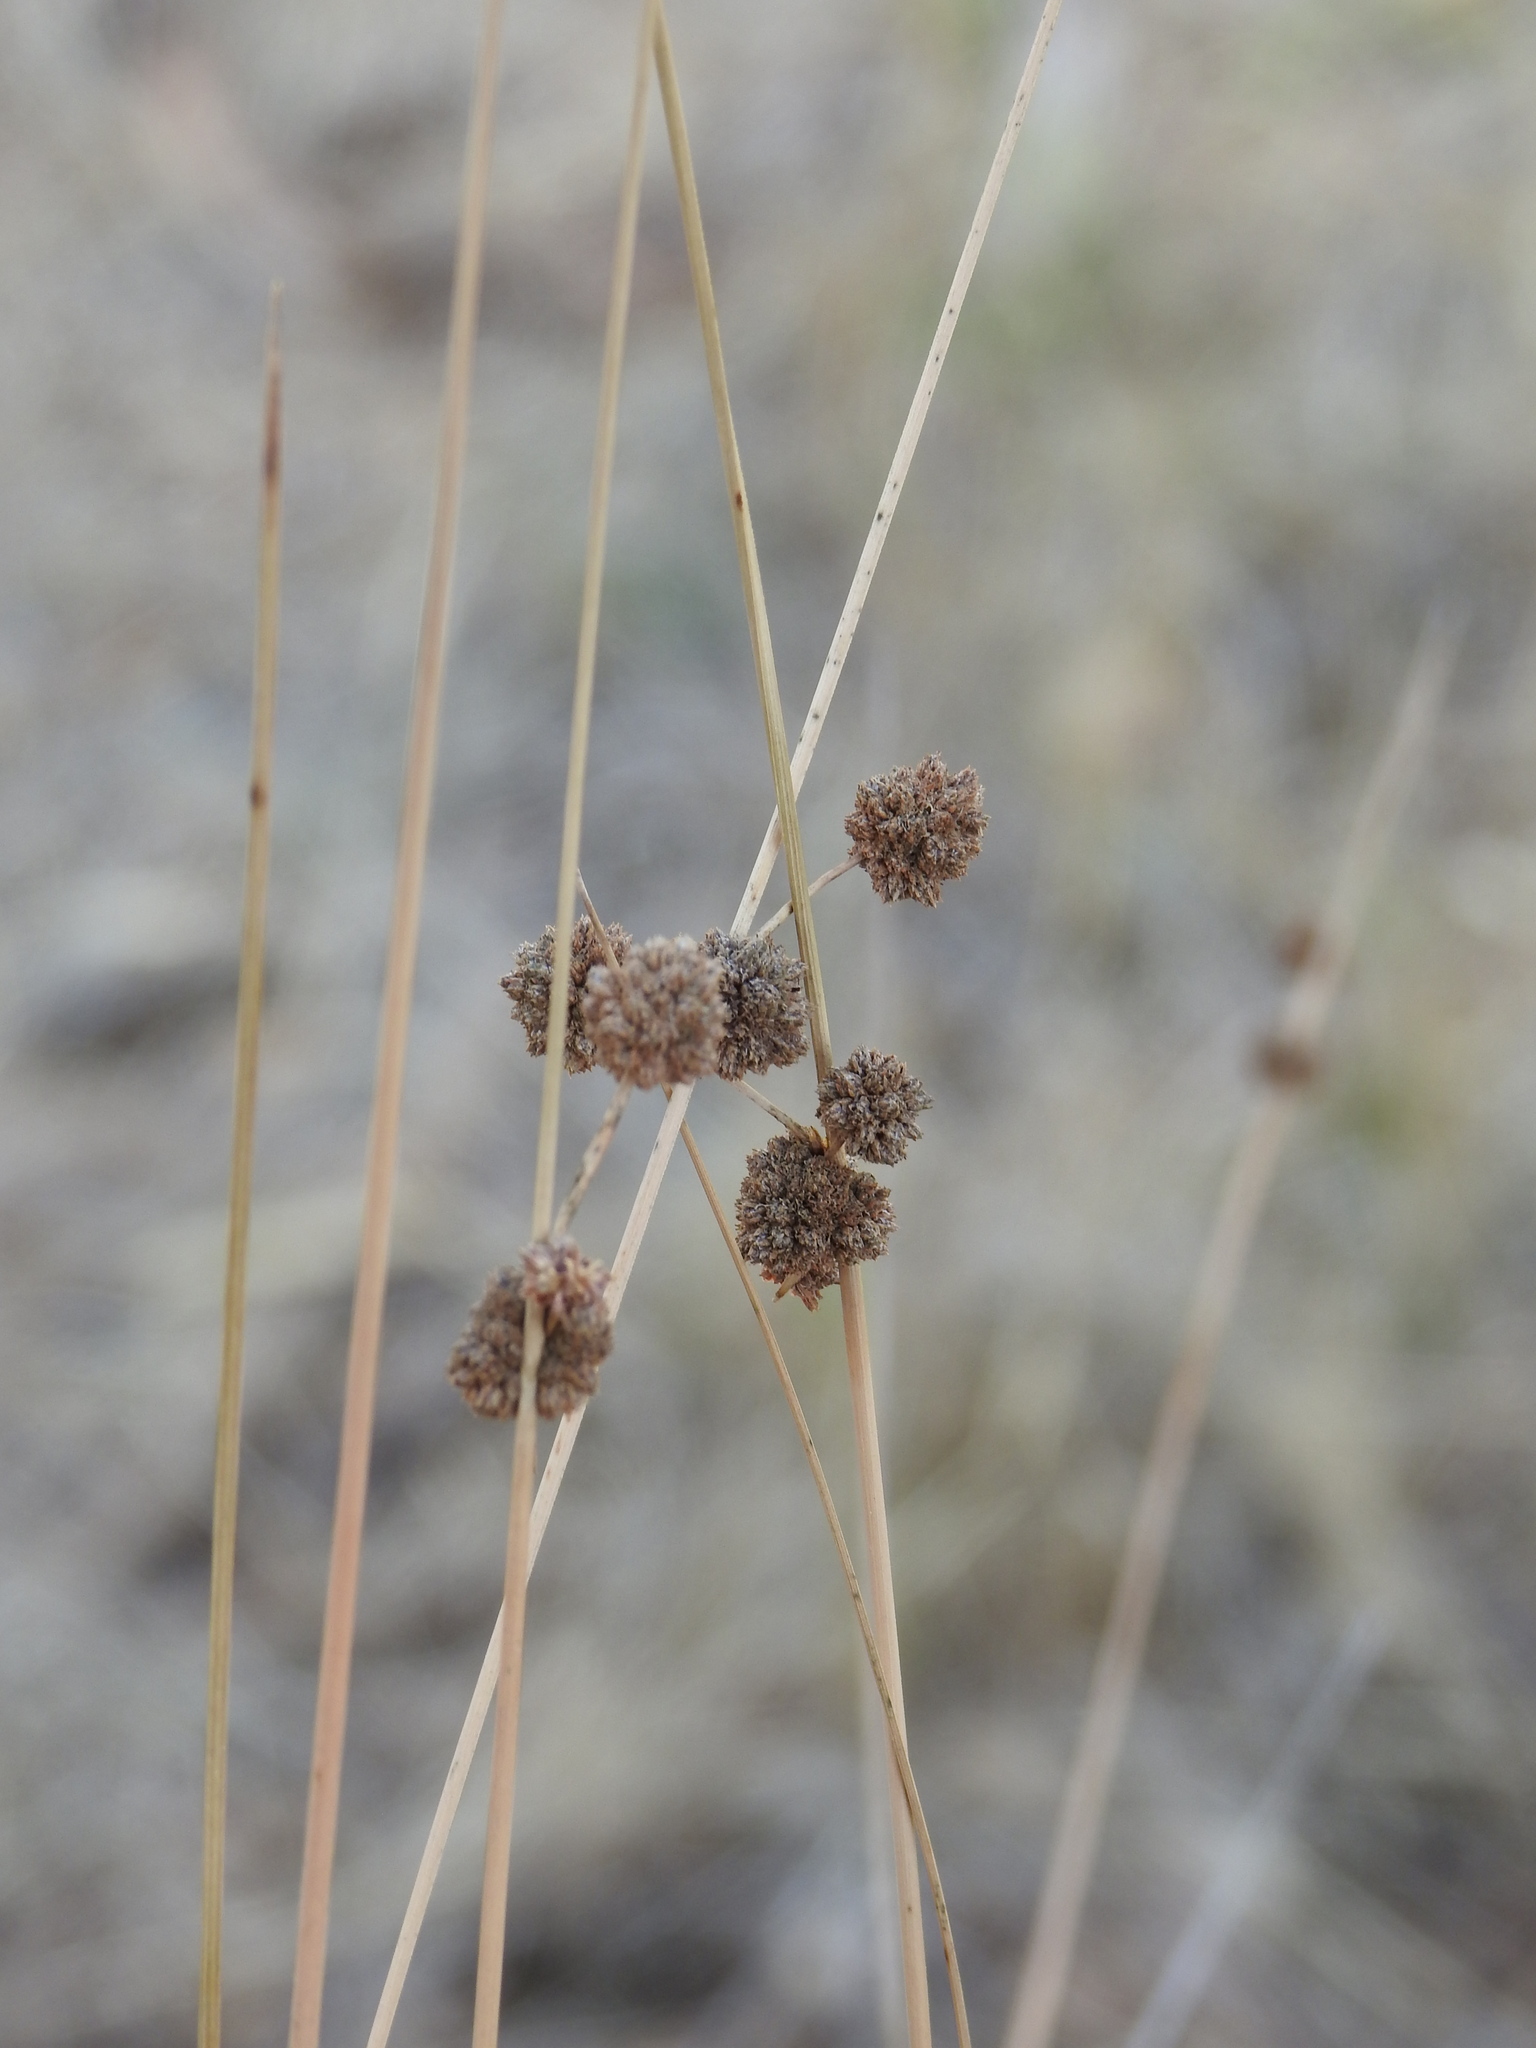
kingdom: Plantae
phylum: Tracheophyta
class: Liliopsida
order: Poales
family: Cyperaceae
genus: Scirpoides
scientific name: Scirpoides holoschoenus
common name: Round-headed club-rush
